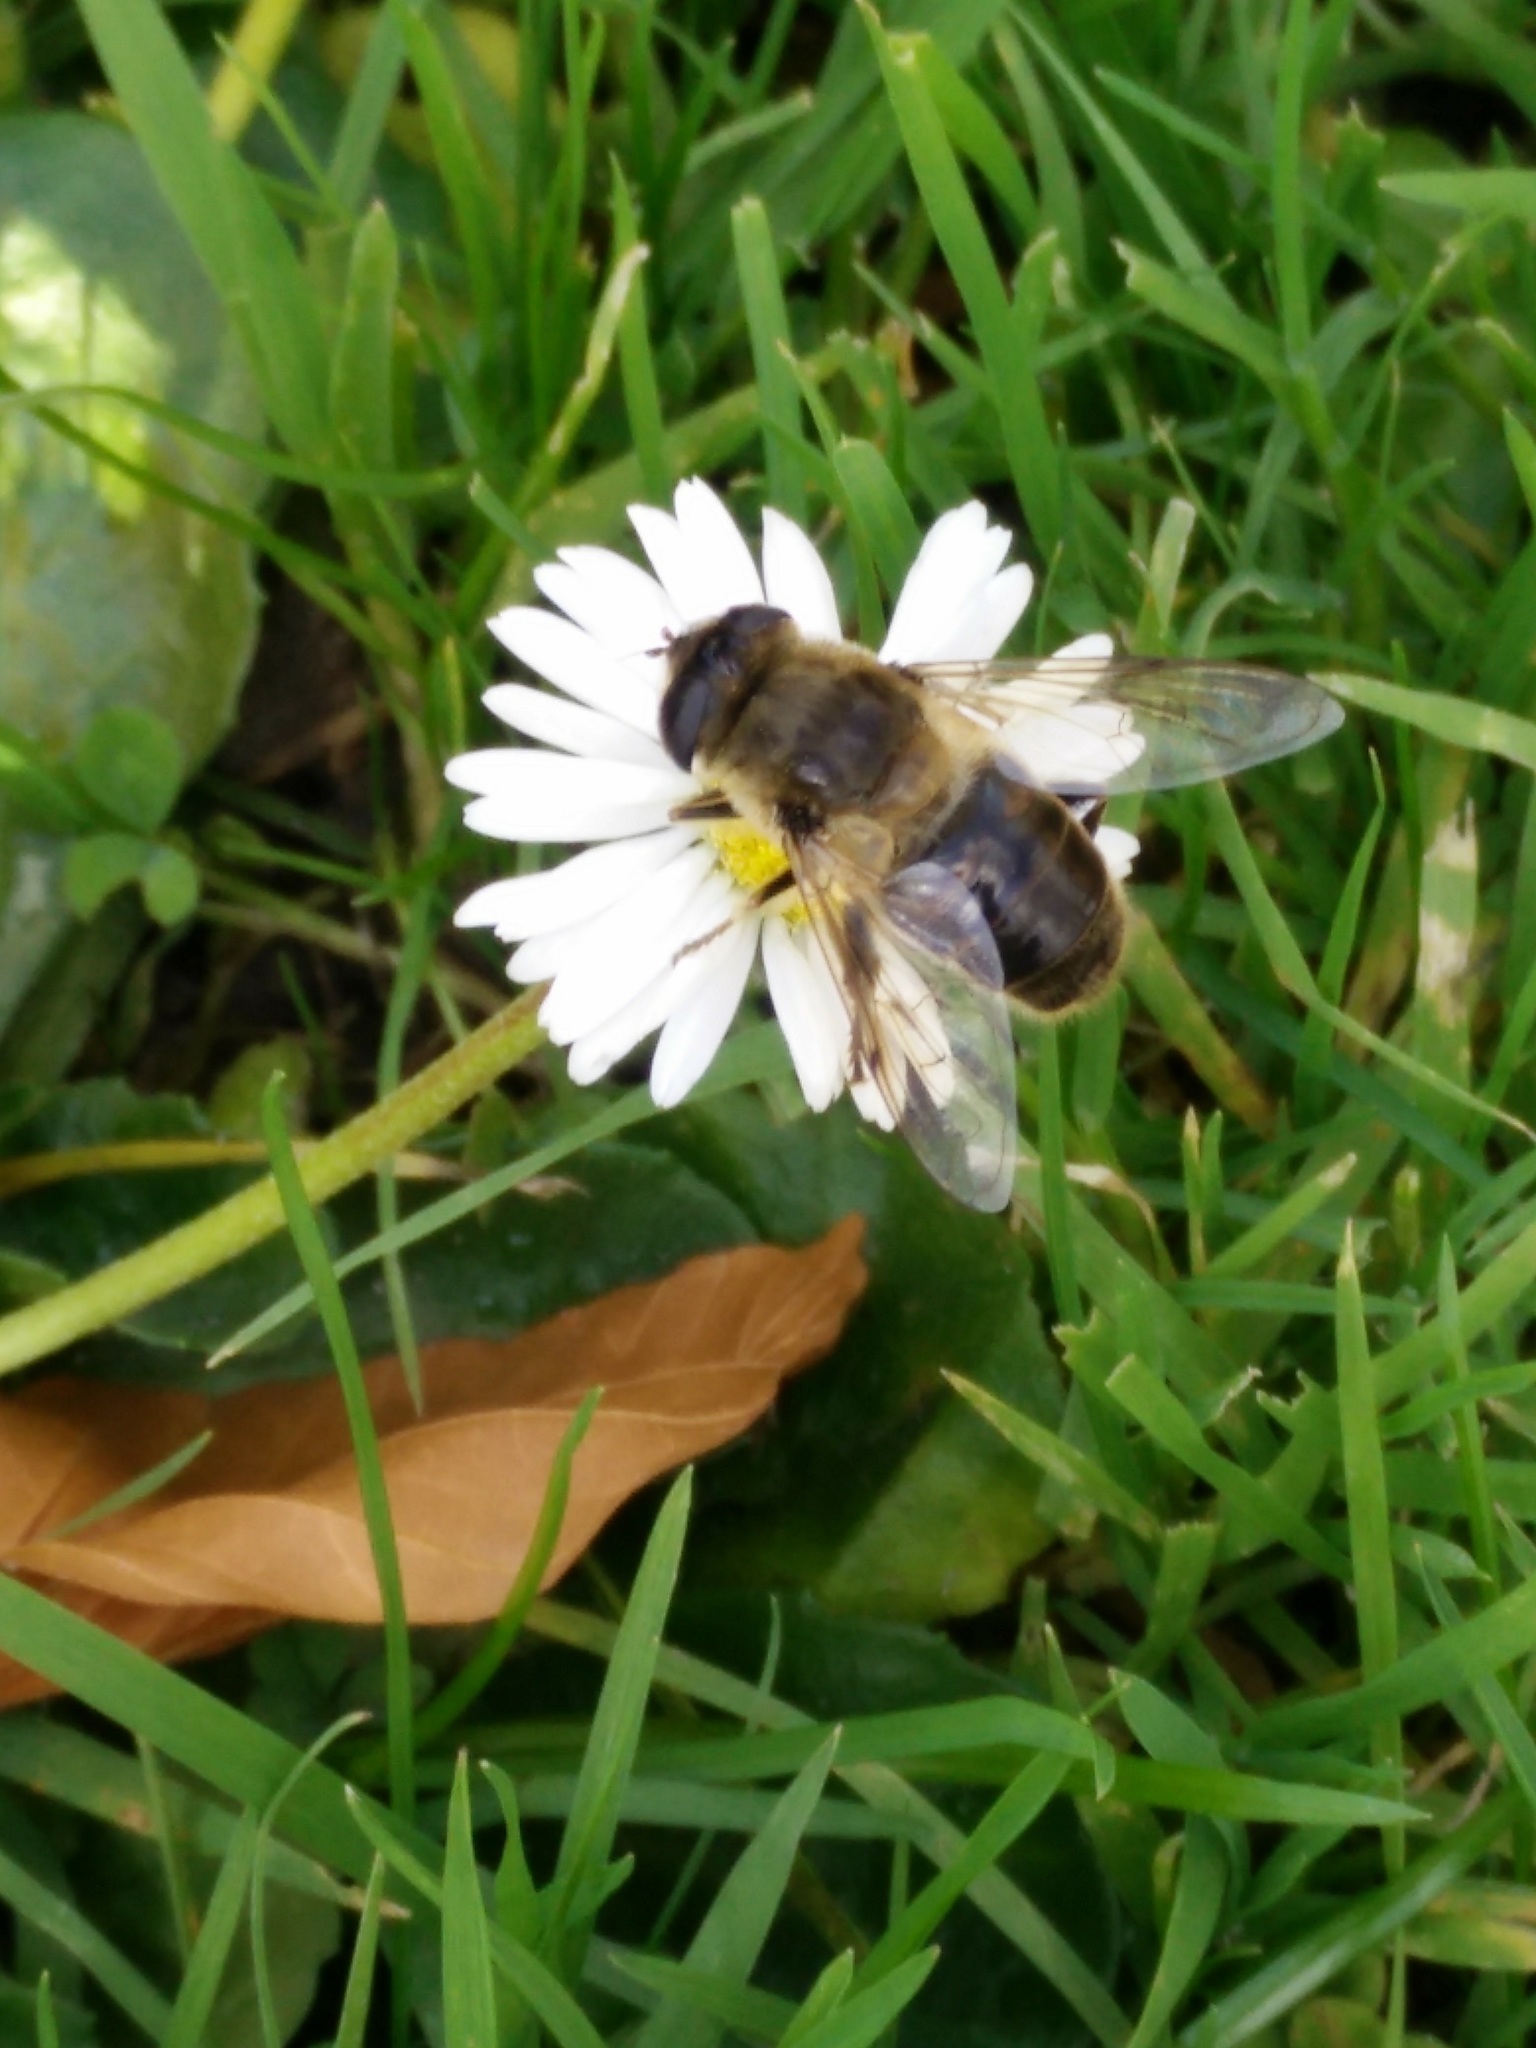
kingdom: Animalia
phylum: Arthropoda
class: Insecta
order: Diptera
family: Syrphidae
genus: Eristalis
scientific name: Eristalis tenax
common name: Drone fly
